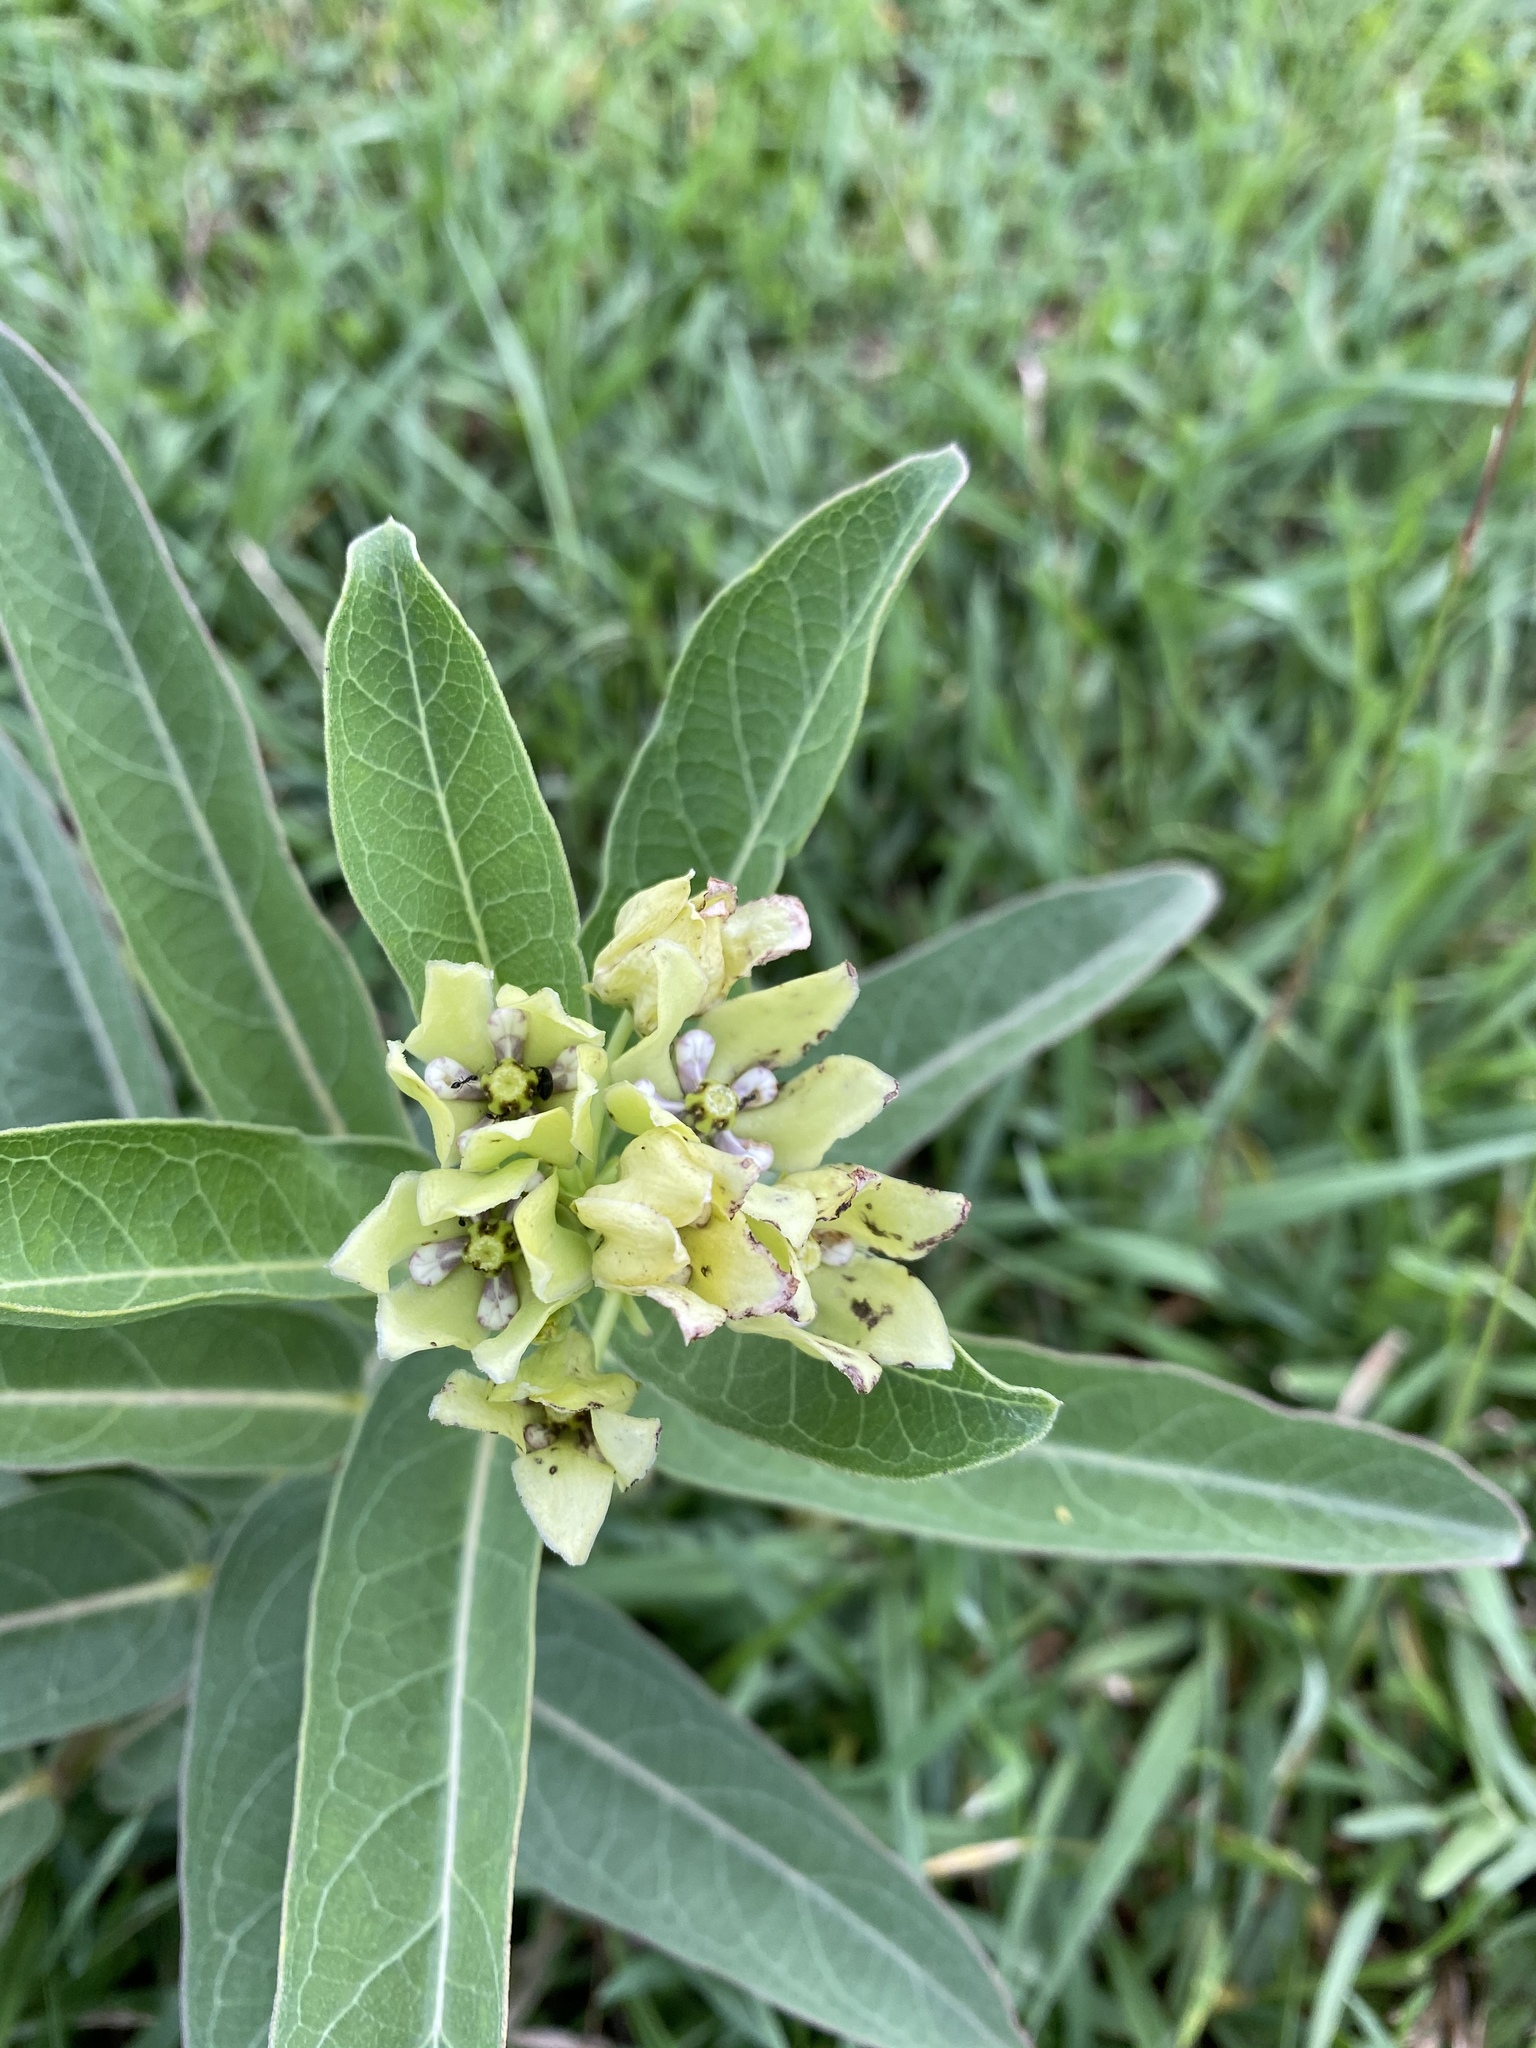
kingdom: Plantae
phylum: Tracheophyta
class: Magnoliopsida
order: Gentianales
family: Apocynaceae
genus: Asclepias
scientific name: Asclepias viridis
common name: Antelope-horns
